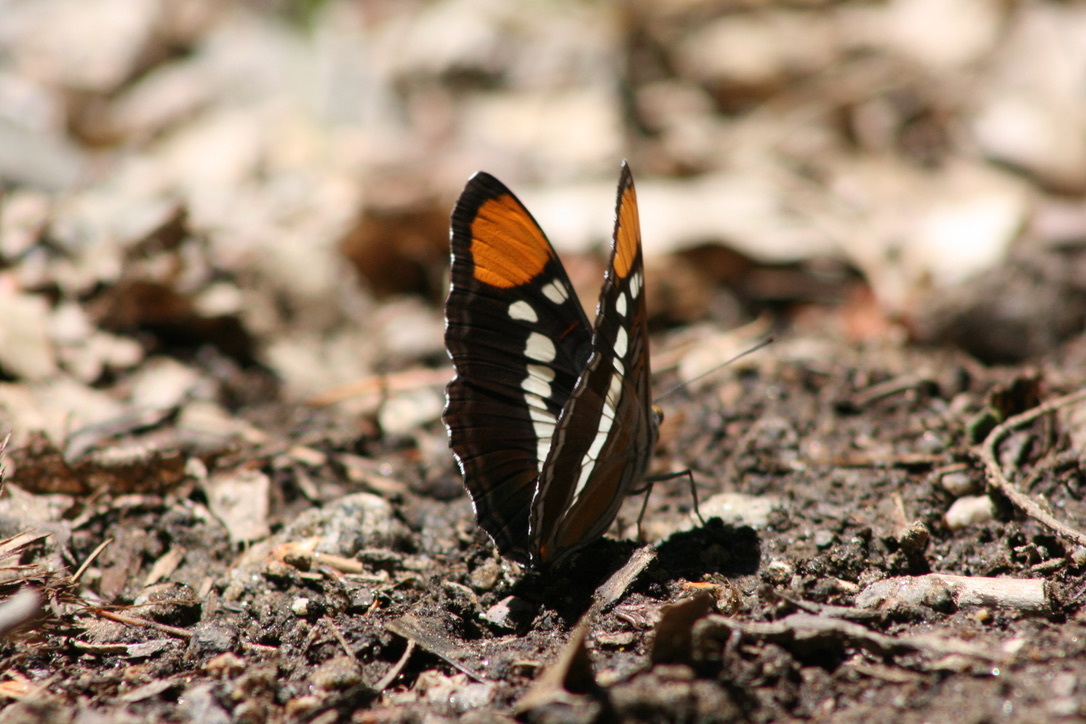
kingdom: Animalia
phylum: Arthropoda
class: Insecta
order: Lepidoptera
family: Nymphalidae
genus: Limenitis
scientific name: Limenitis bredowii
